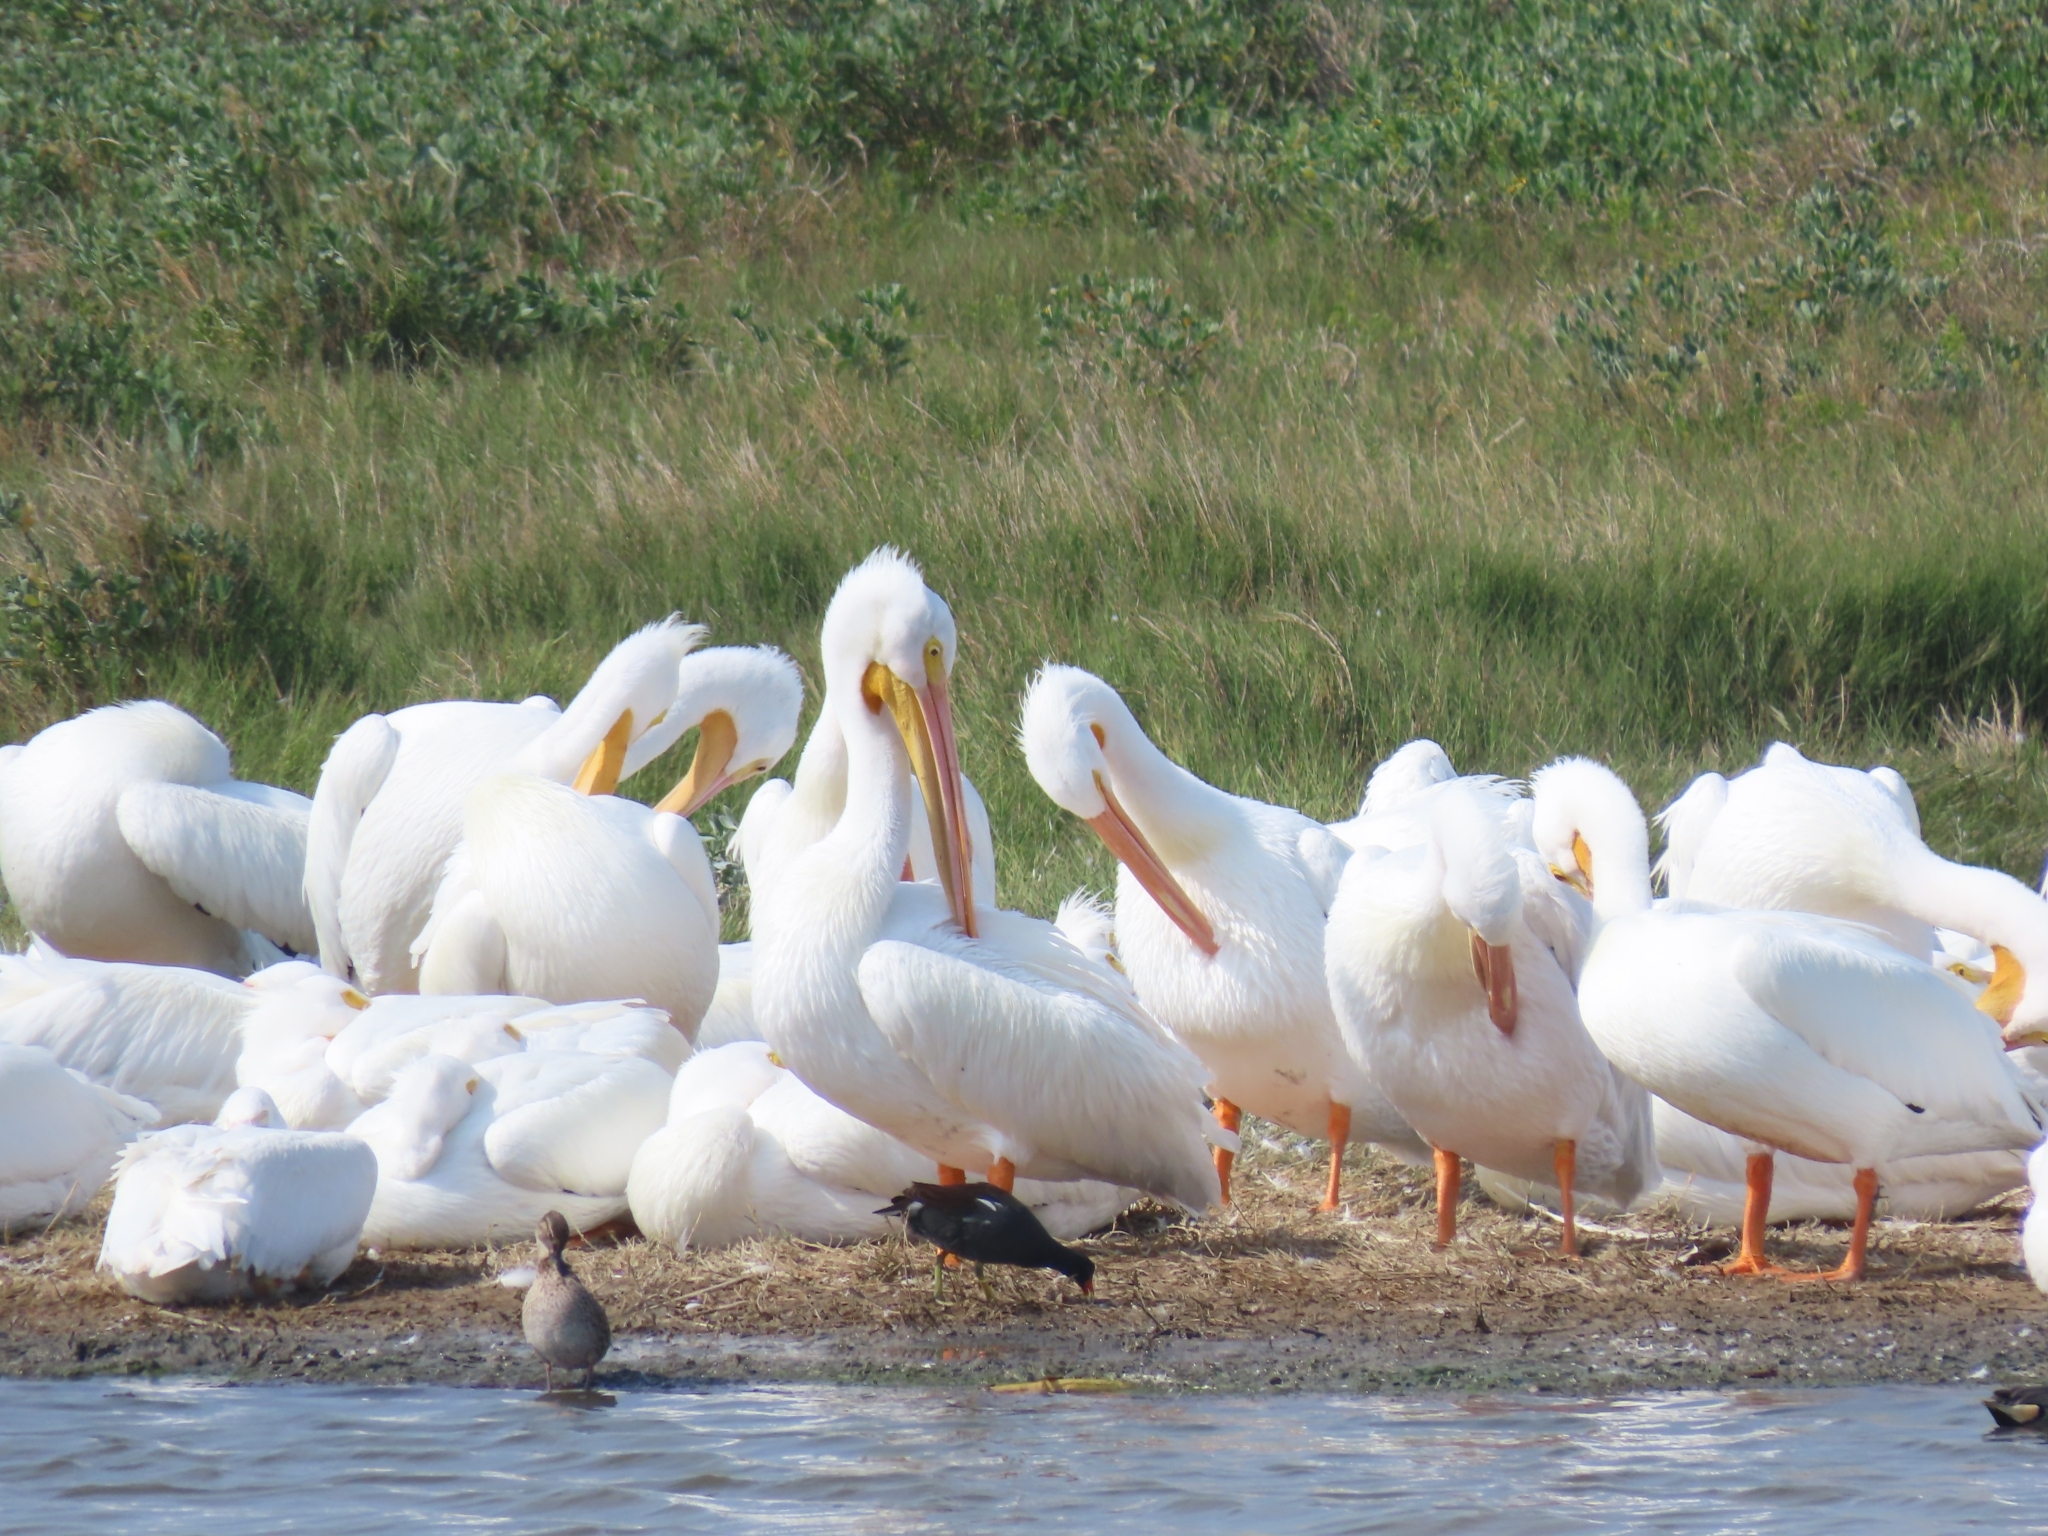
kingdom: Animalia
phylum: Chordata
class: Aves
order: Pelecaniformes
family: Pelecanidae
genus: Pelecanus
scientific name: Pelecanus erythrorhynchos
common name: American white pelican
